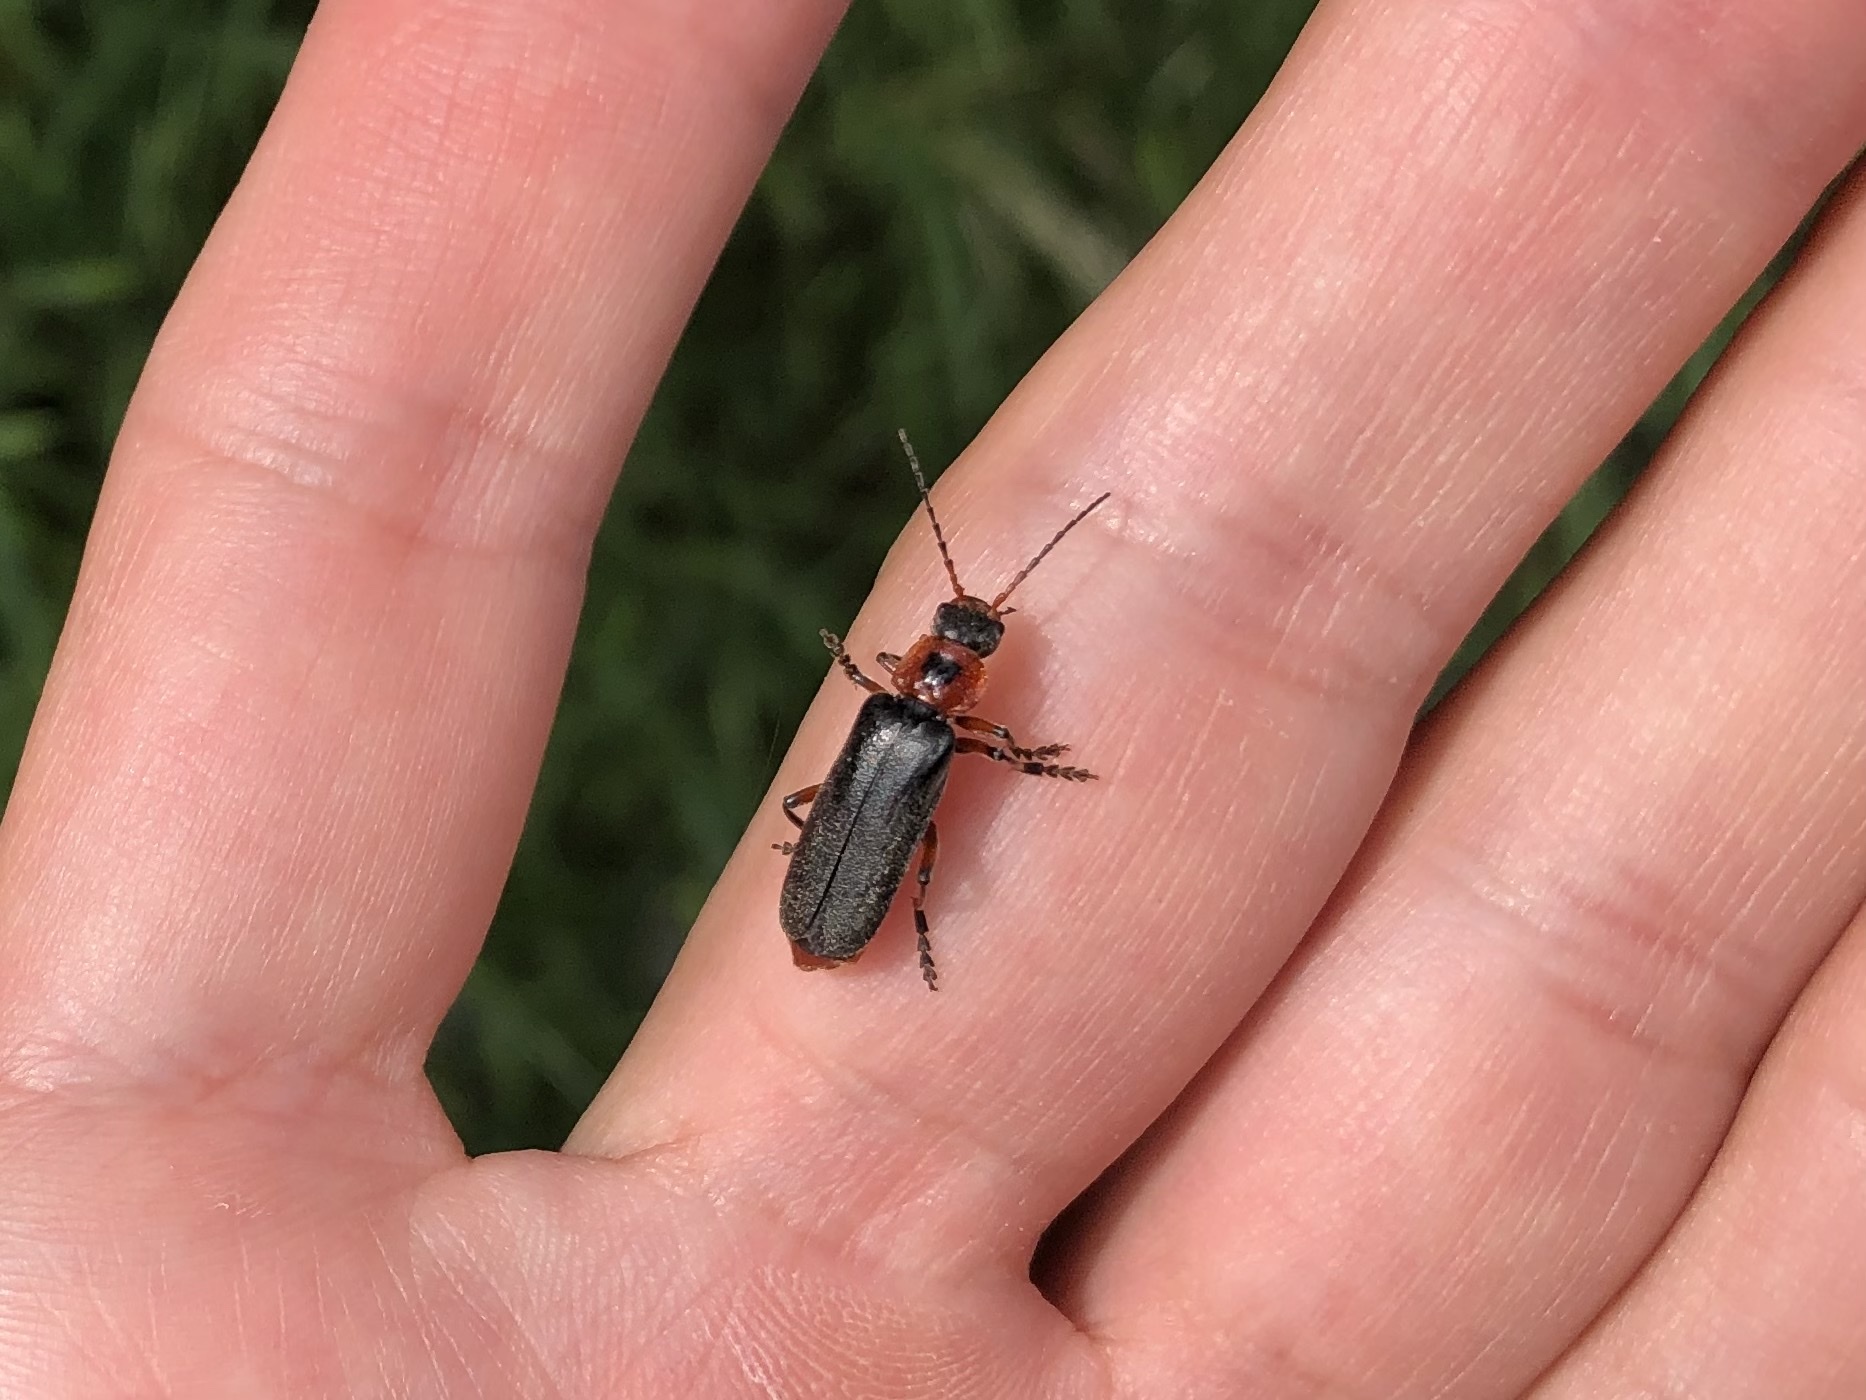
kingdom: Animalia
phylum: Arthropoda
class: Insecta
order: Coleoptera
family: Cantharidae
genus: Cantharis
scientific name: Cantharis rustica
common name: Soldier beetle
